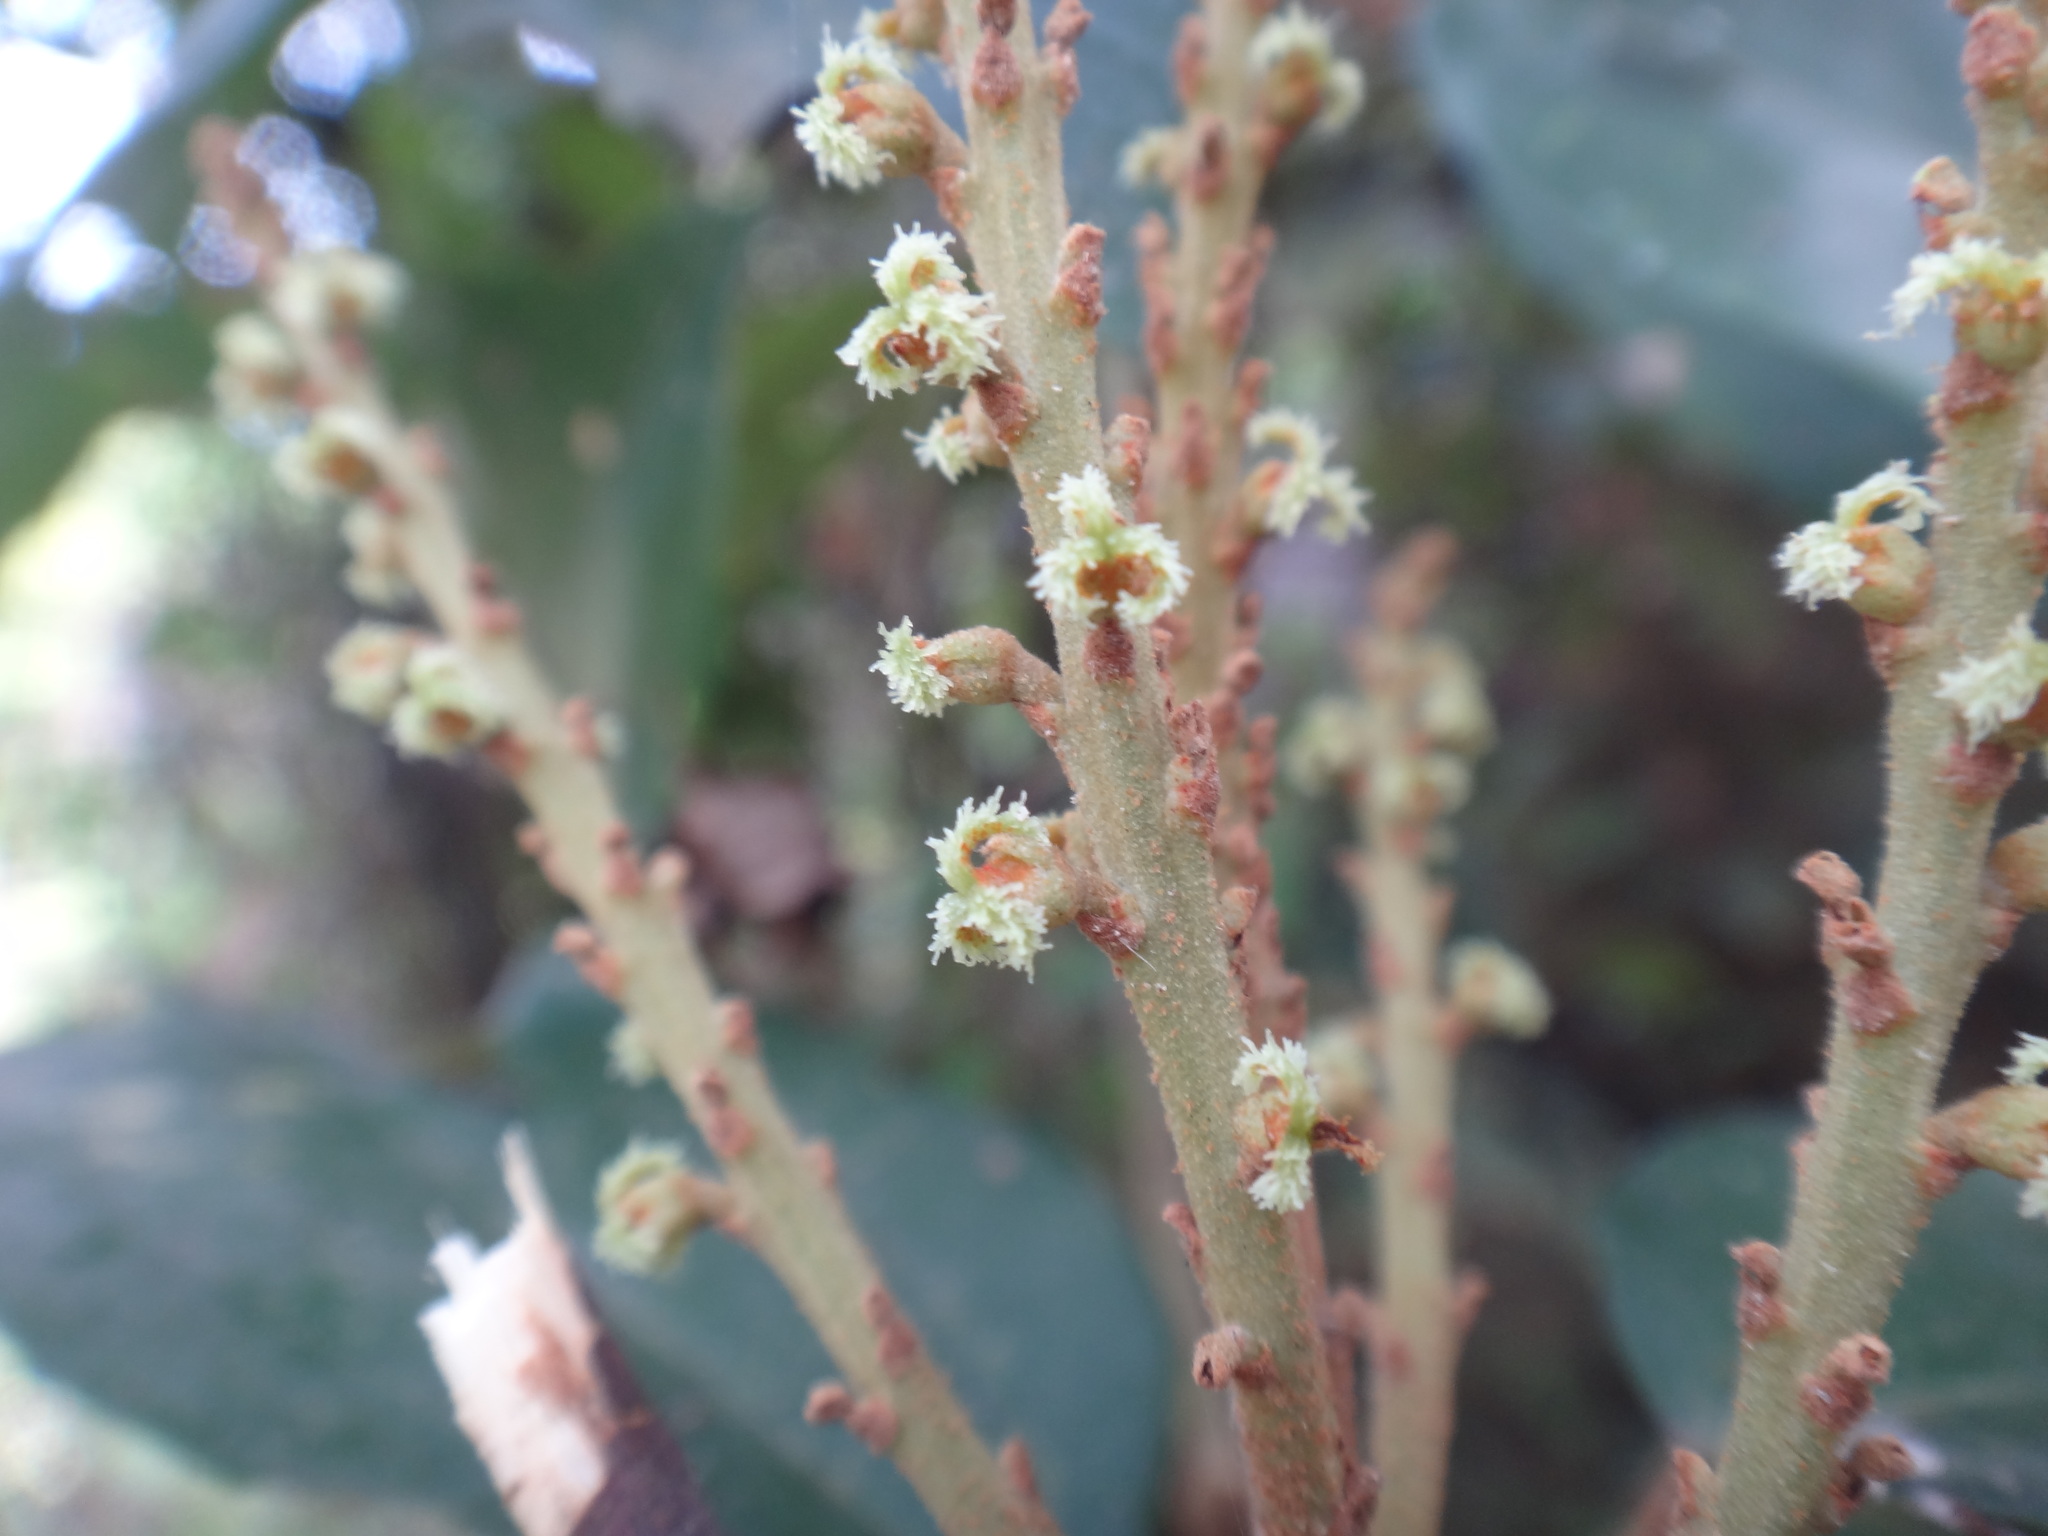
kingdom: Plantae
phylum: Tracheophyta
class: Magnoliopsida
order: Malpighiales
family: Euphorbiaceae
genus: Mallotus
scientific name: Mallotus philippensis
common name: Kamala tree
